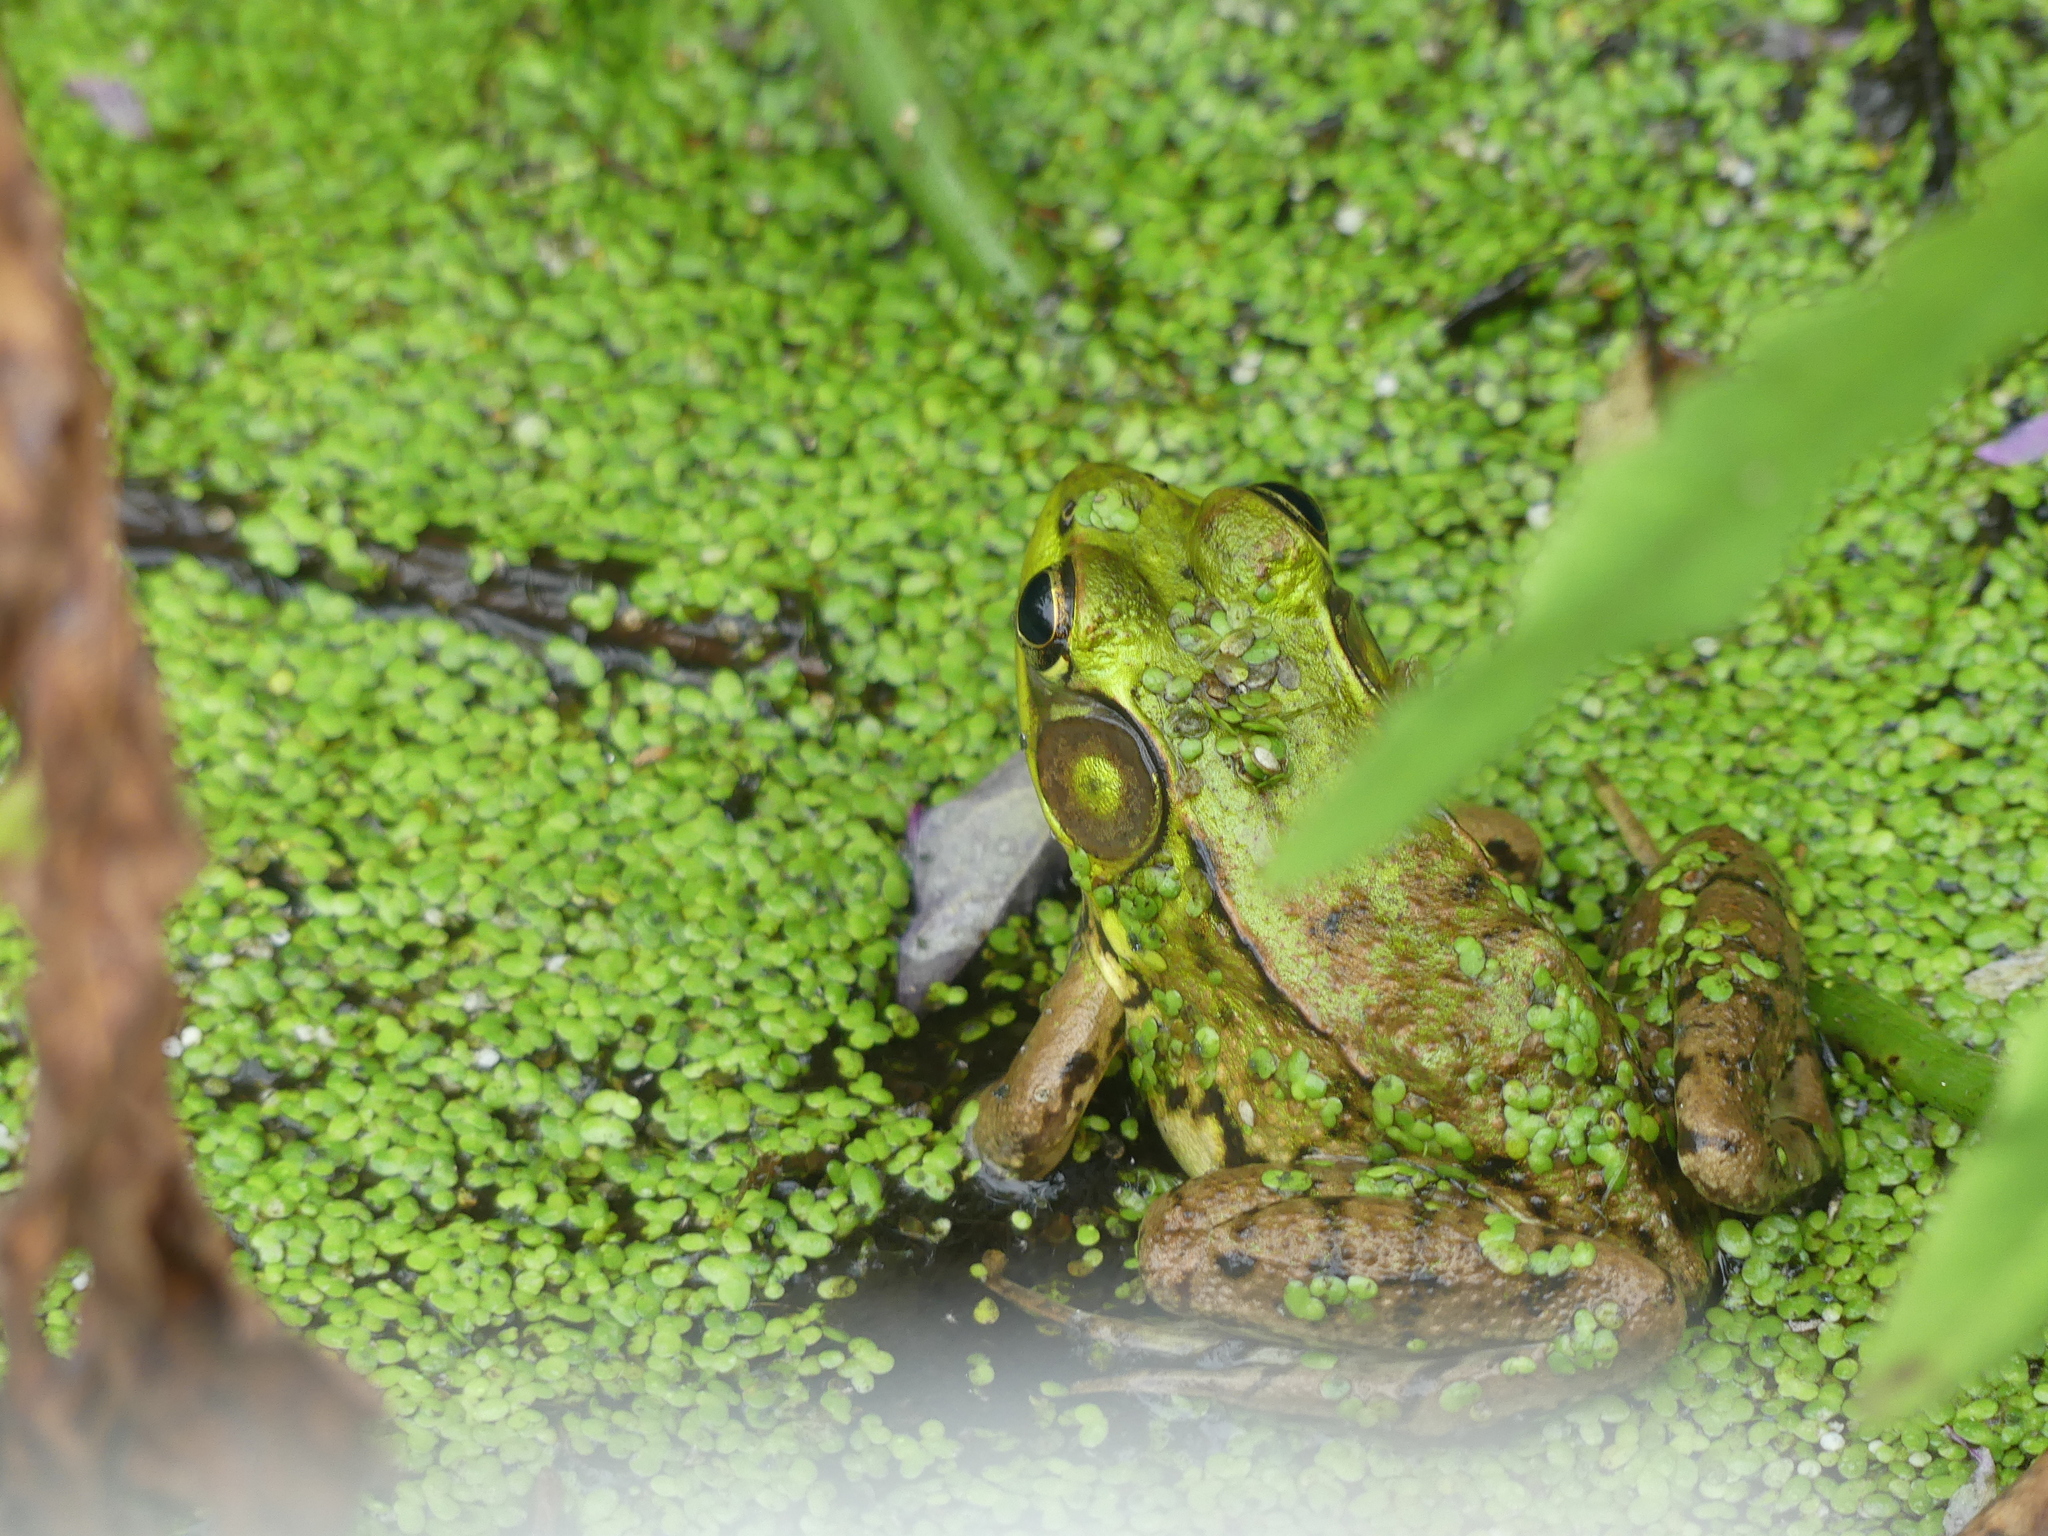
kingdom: Animalia
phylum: Chordata
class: Amphibia
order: Anura
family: Ranidae
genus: Lithobates
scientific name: Lithobates clamitans
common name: Green frog
